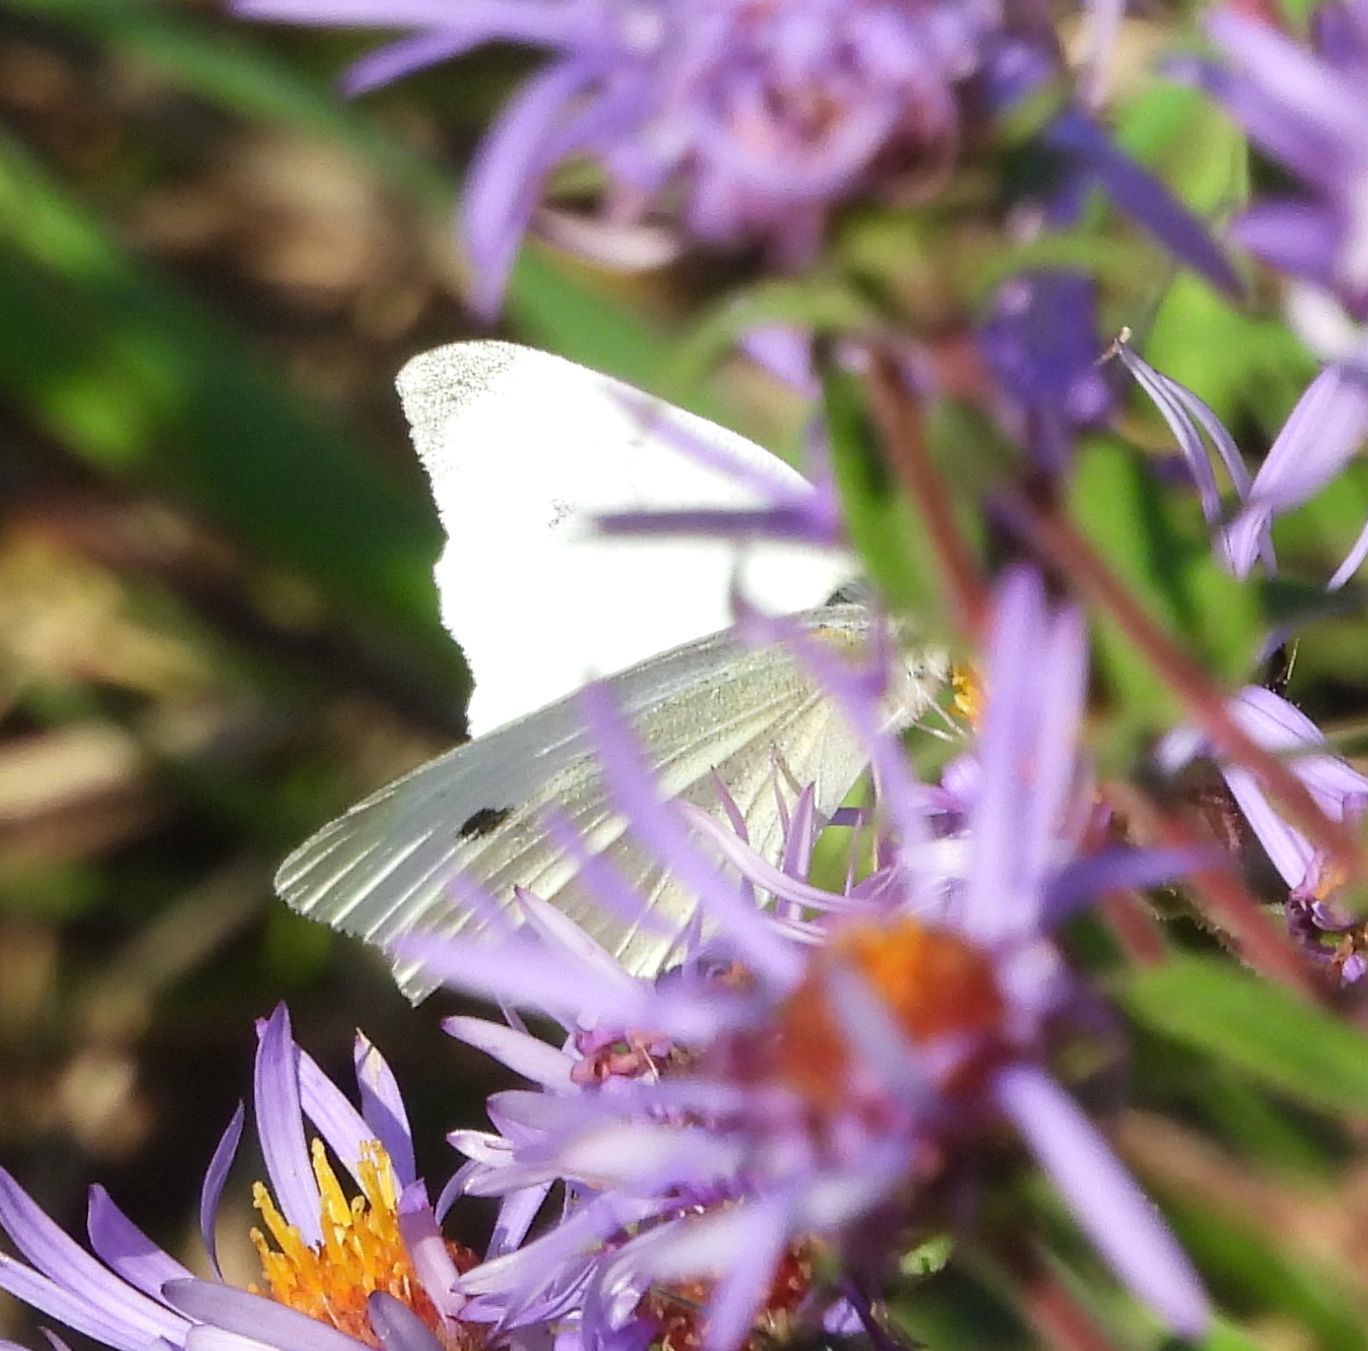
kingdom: Animalia
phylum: Arthropoda
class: Insecta
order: Lepidoptera
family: Pieridae
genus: Pieris
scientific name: Pieris rapae
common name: Small white
